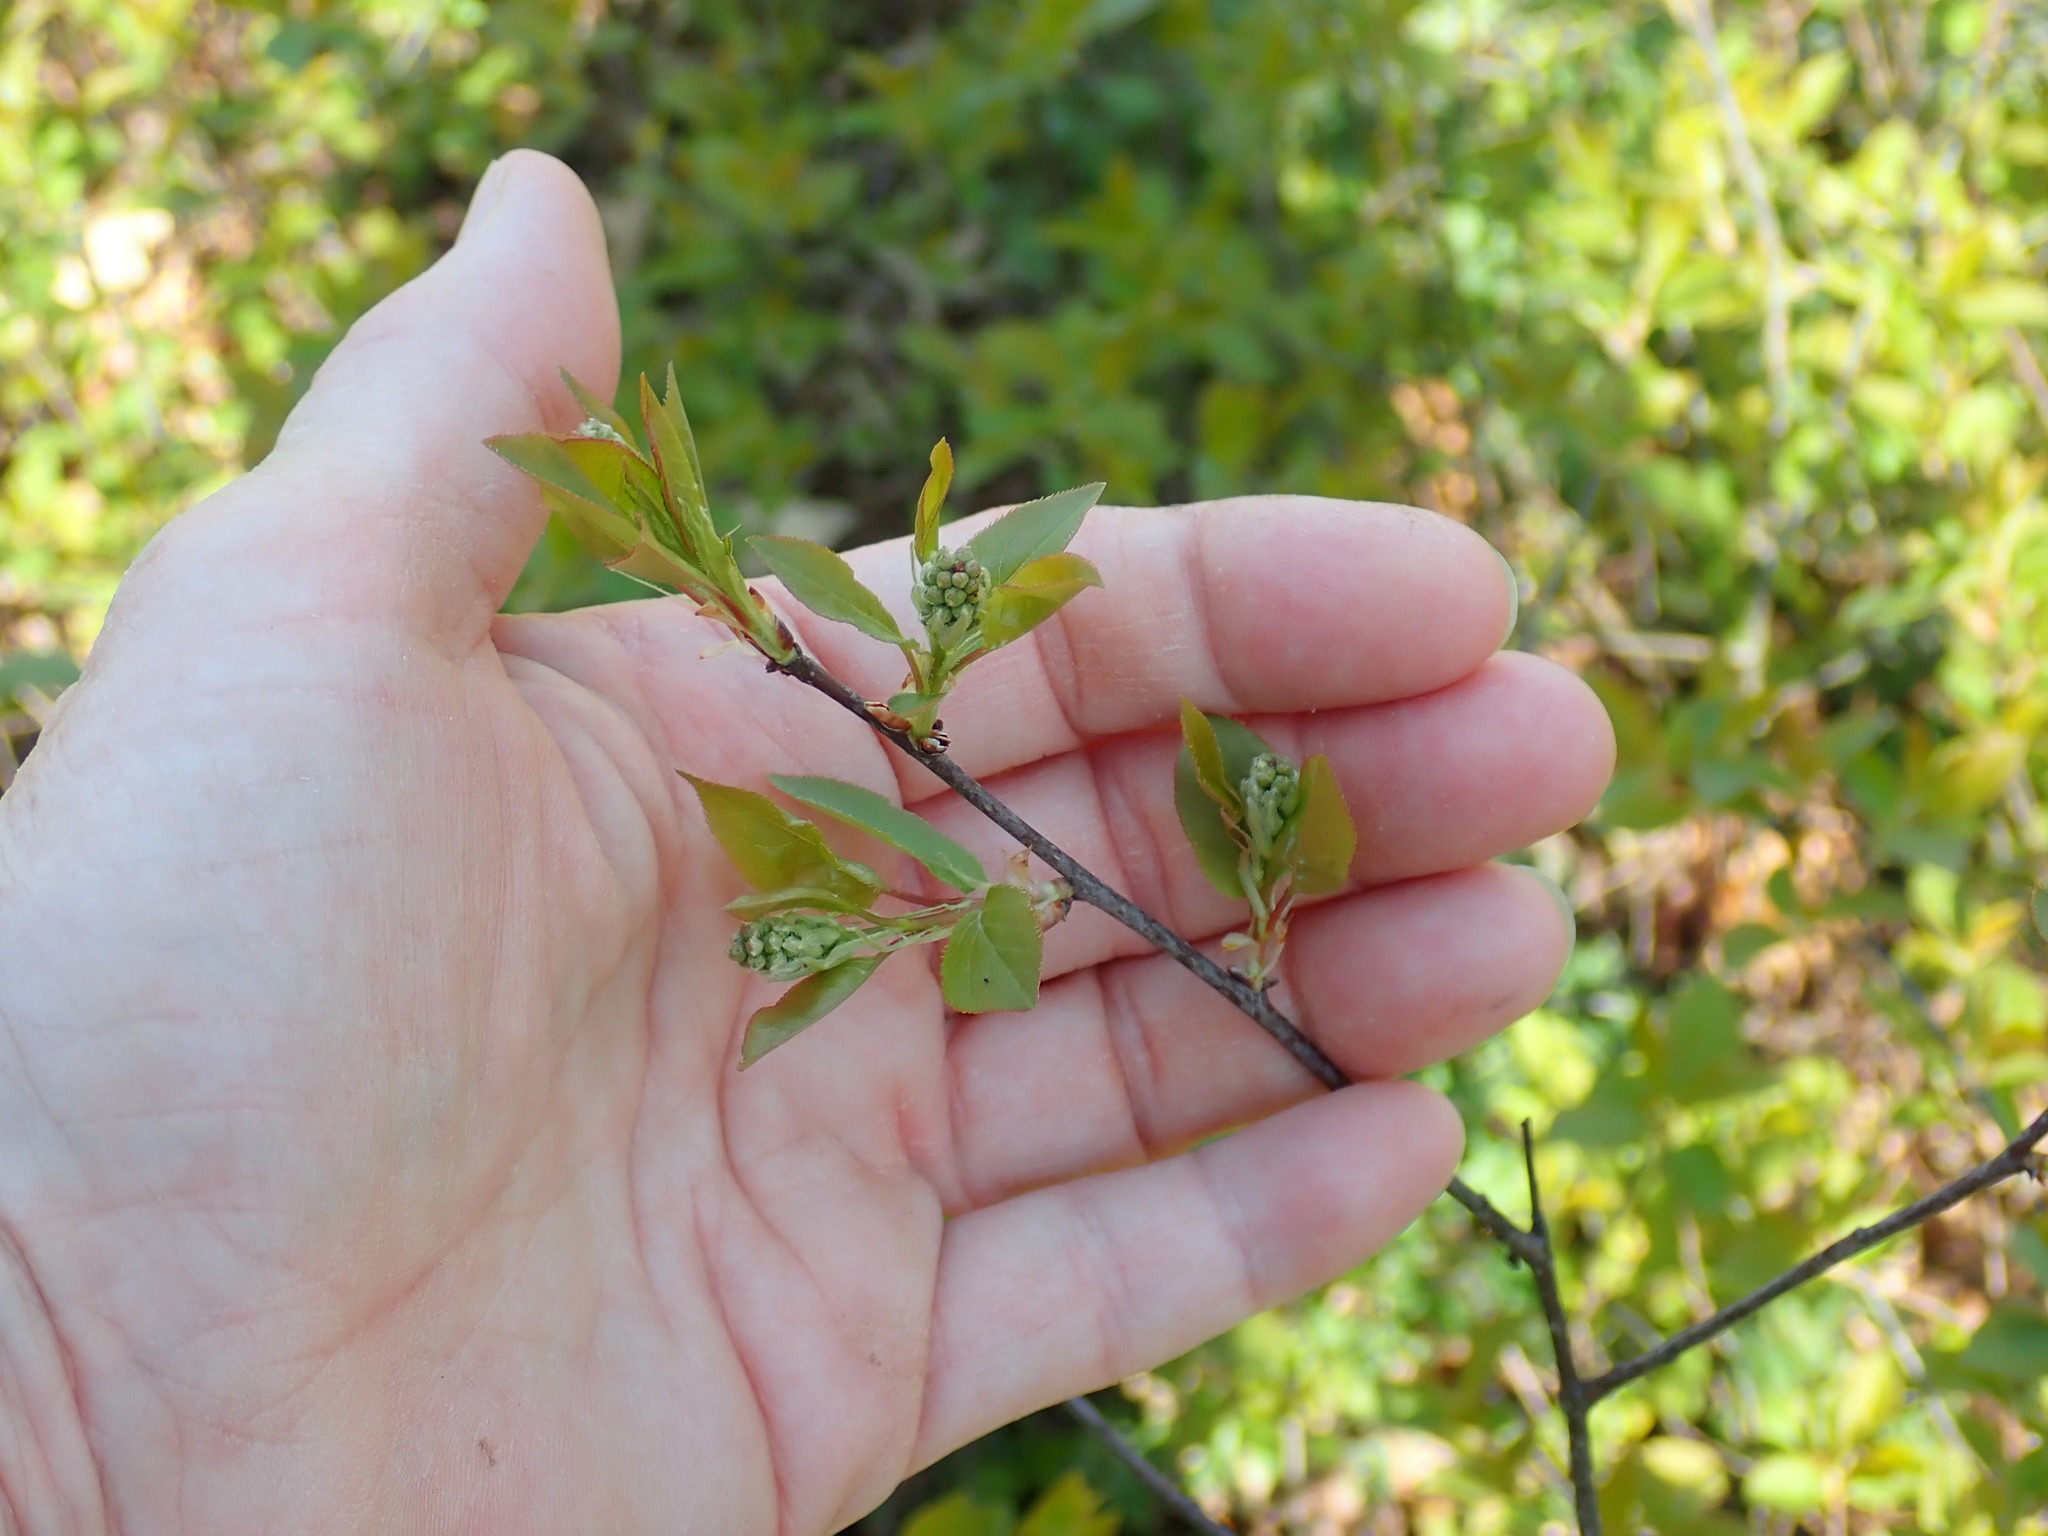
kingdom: Plantae
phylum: Tracheophyta
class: Magnoliopsida
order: Rosales
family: Rosaceae
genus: Prunus
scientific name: Prunus virginiana
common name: Chokecherry
